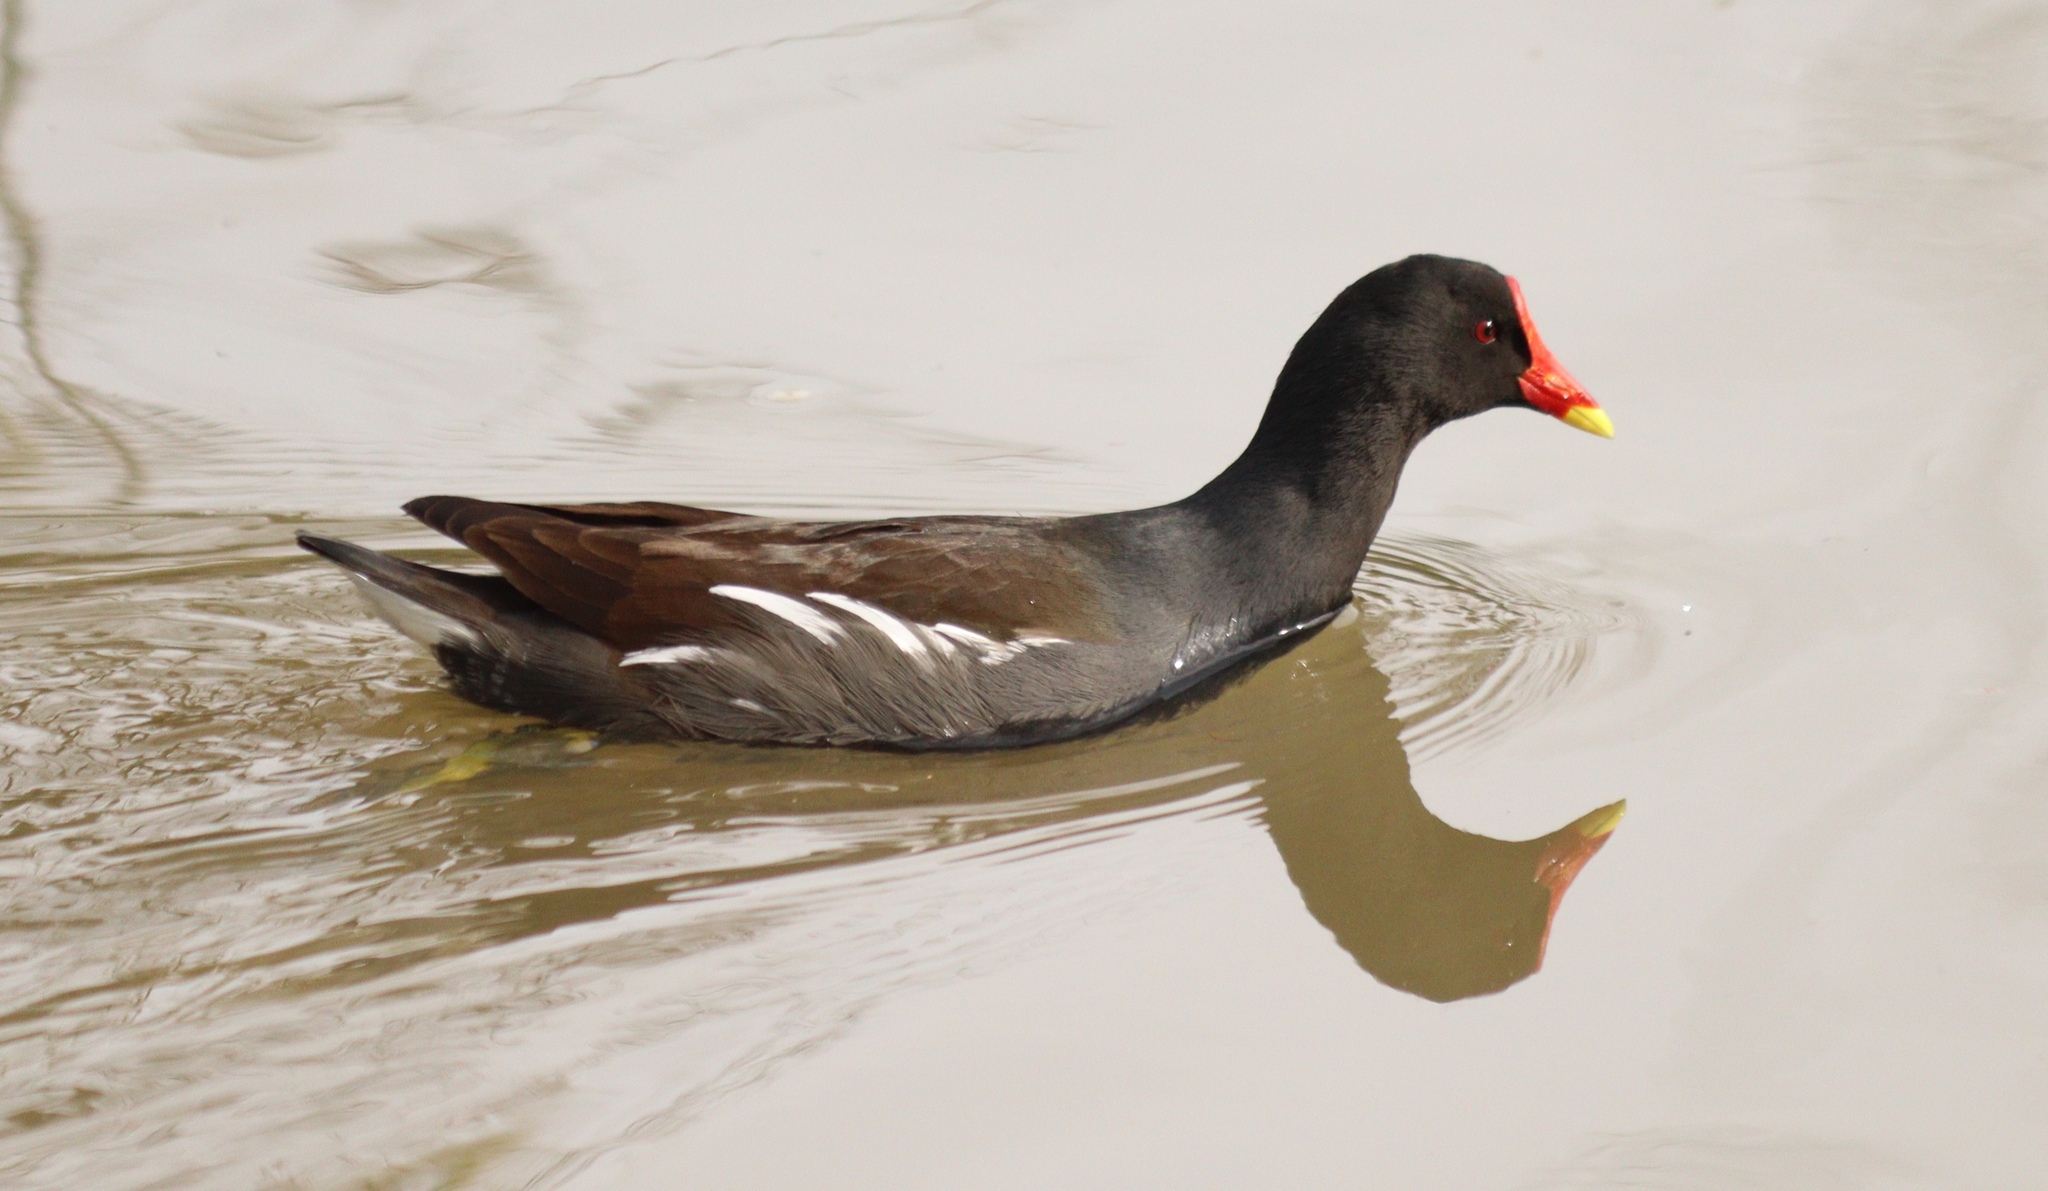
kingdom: Animalia
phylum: Chordata
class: Aves
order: Gruiformes
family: Rallidae
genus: Gallinula
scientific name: Gallinula chloropus
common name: Common moorhen
